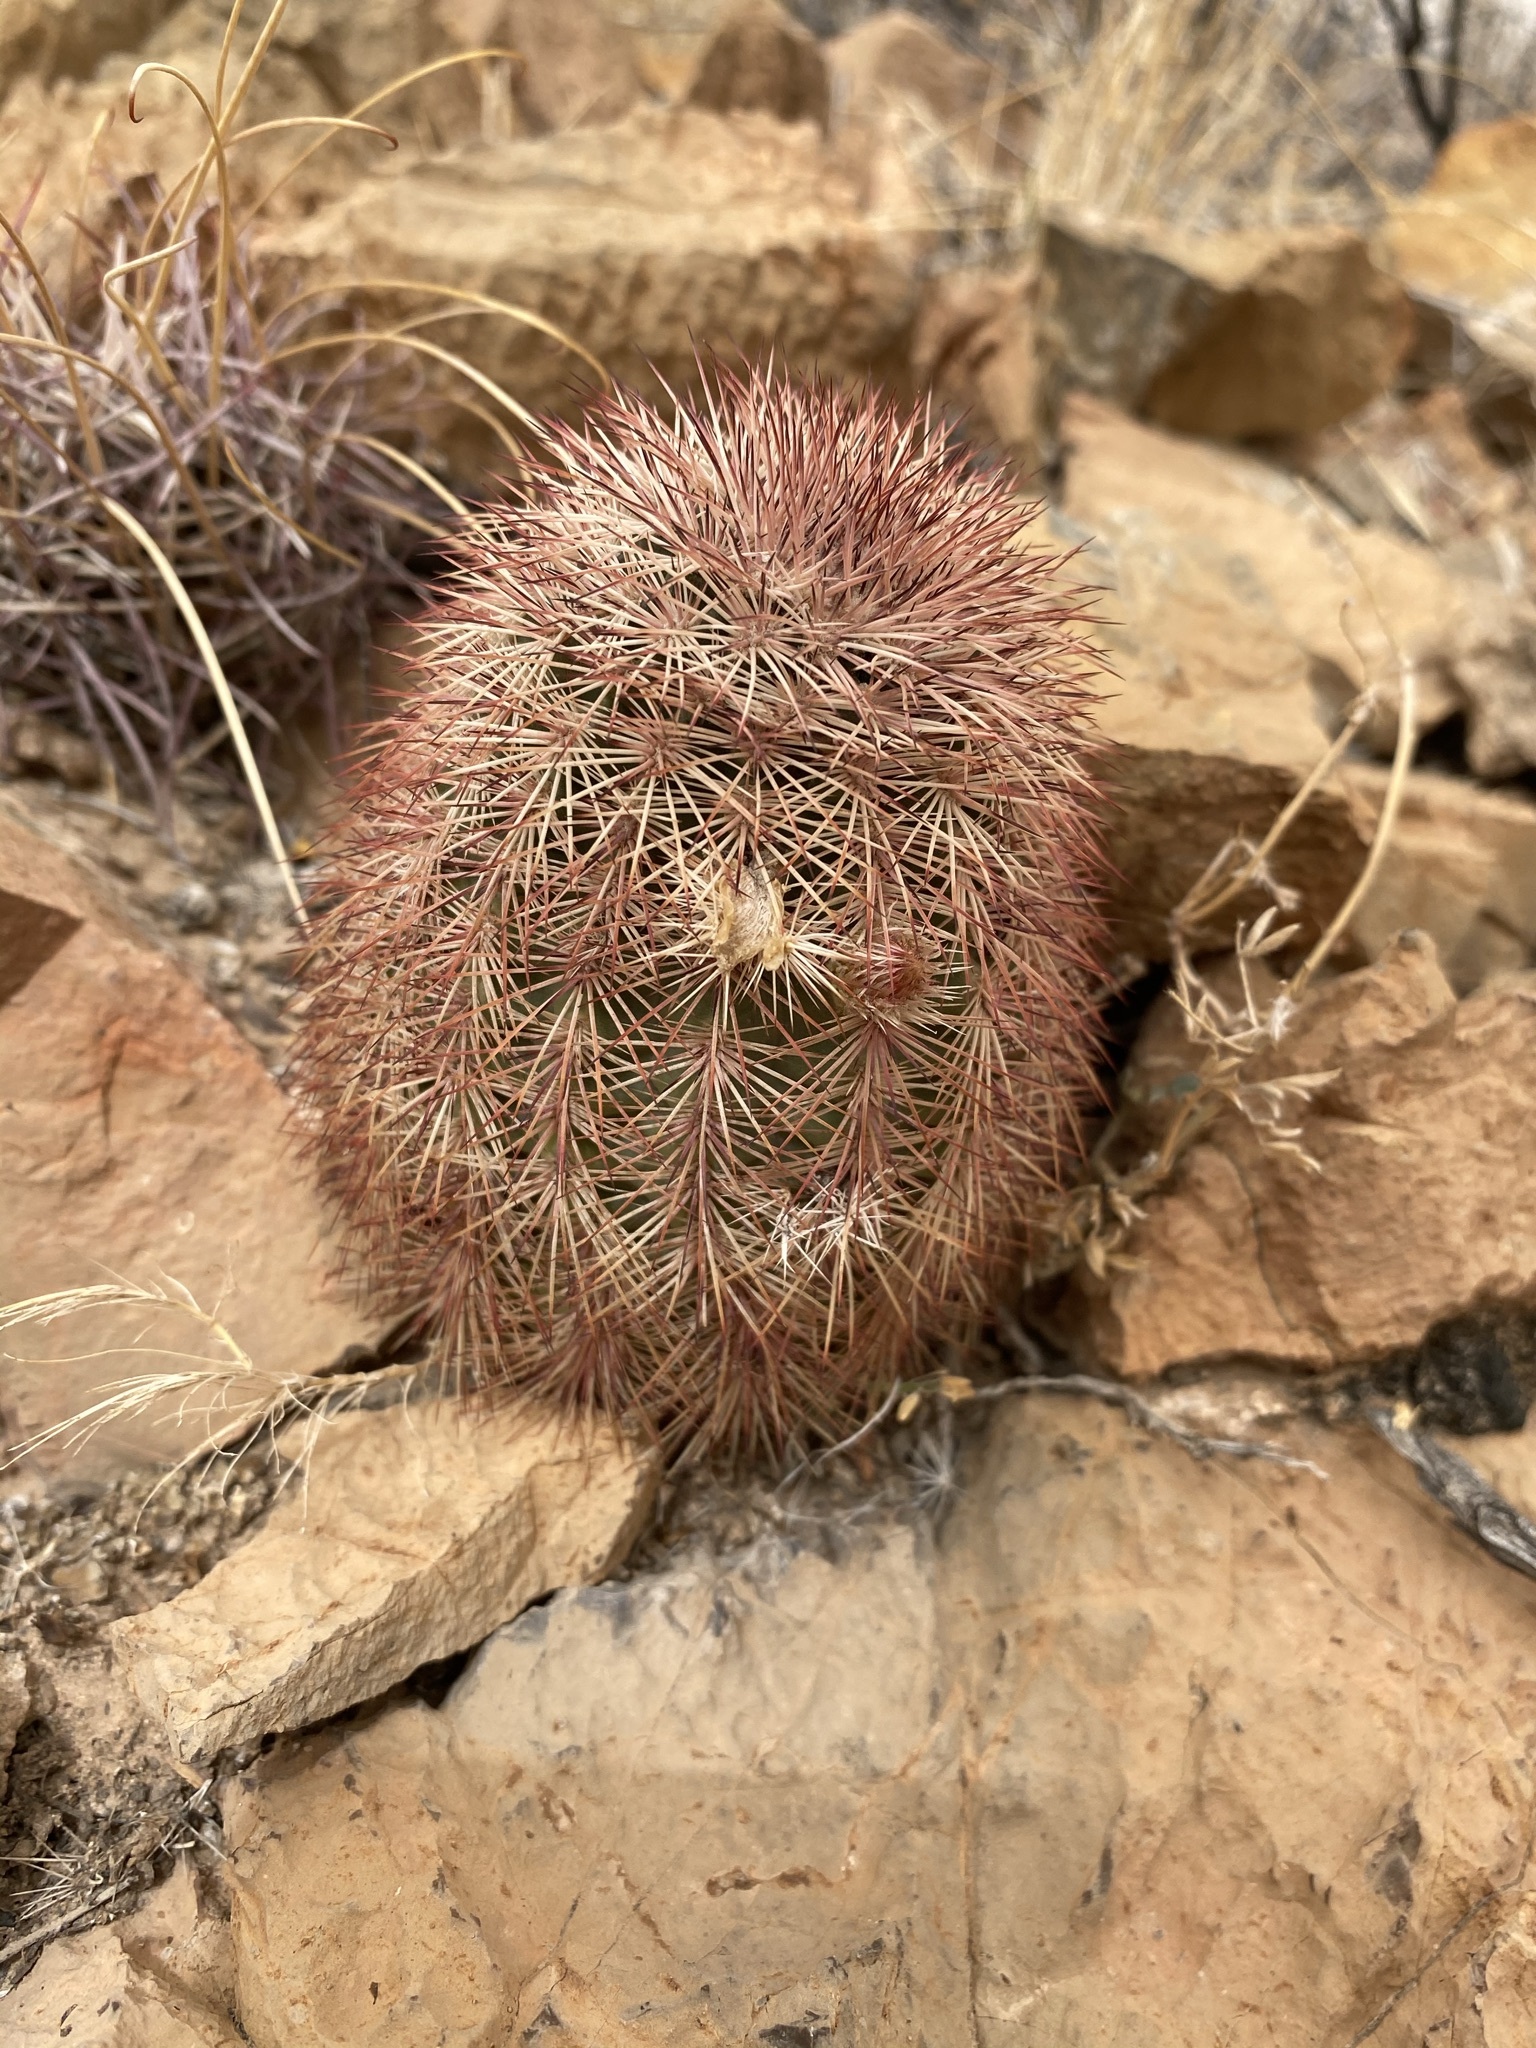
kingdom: Plantae
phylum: Tracheophyta
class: Magnoliopsida
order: Caryophyllales
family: Cactaceae
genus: Echinocereus
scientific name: Echinocereus dasyacanthus
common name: Spiny hedgehog cactus
